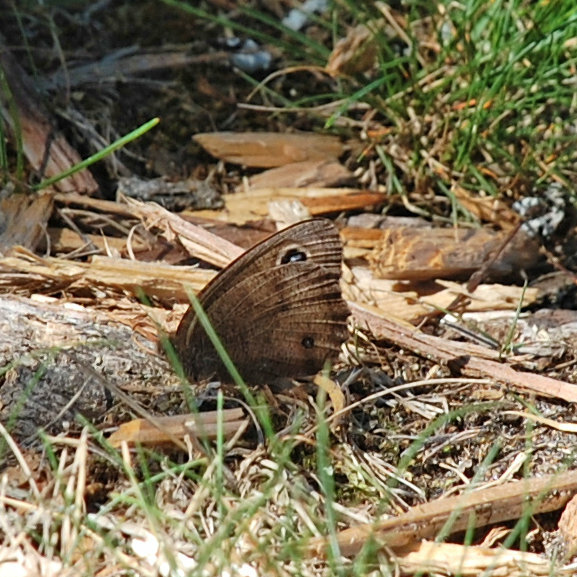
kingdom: Animalia
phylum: Arthropoda
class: Insecta
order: Lepidoptera
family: Nymphalidae
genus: Cercyonis
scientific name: Cercyonis pegala
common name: Common wood-nymph
